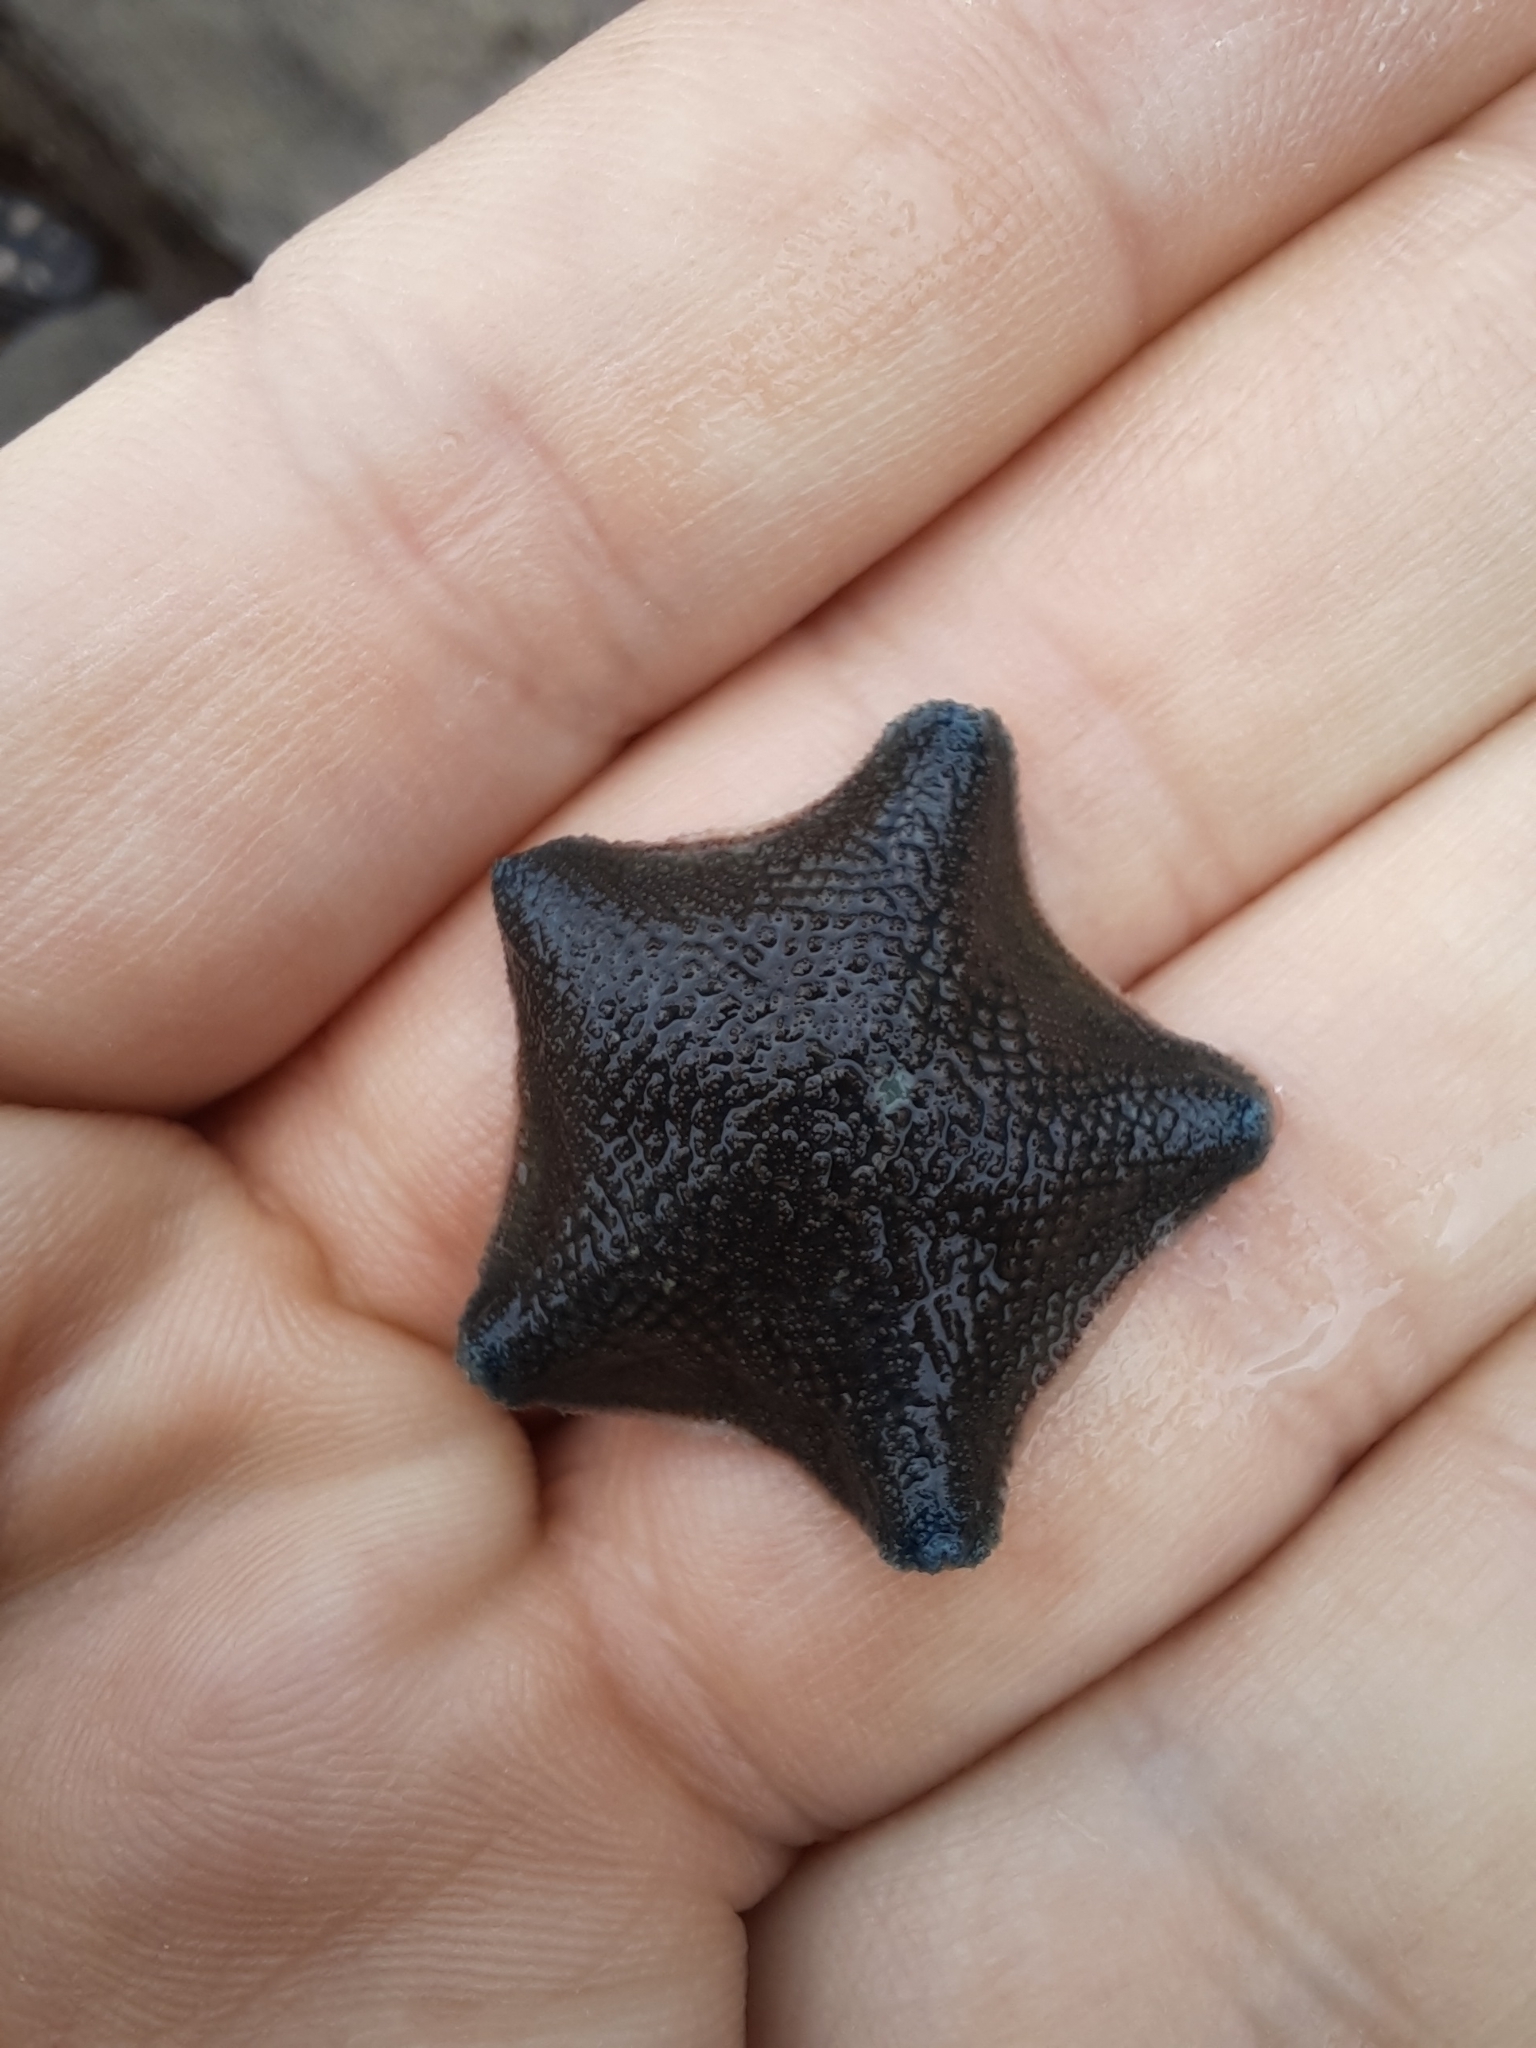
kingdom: Animalia
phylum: Echinodermata
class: Asteroidea
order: Valvatida
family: Asterinidae
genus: Patiriella
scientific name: Patiriella regularis
